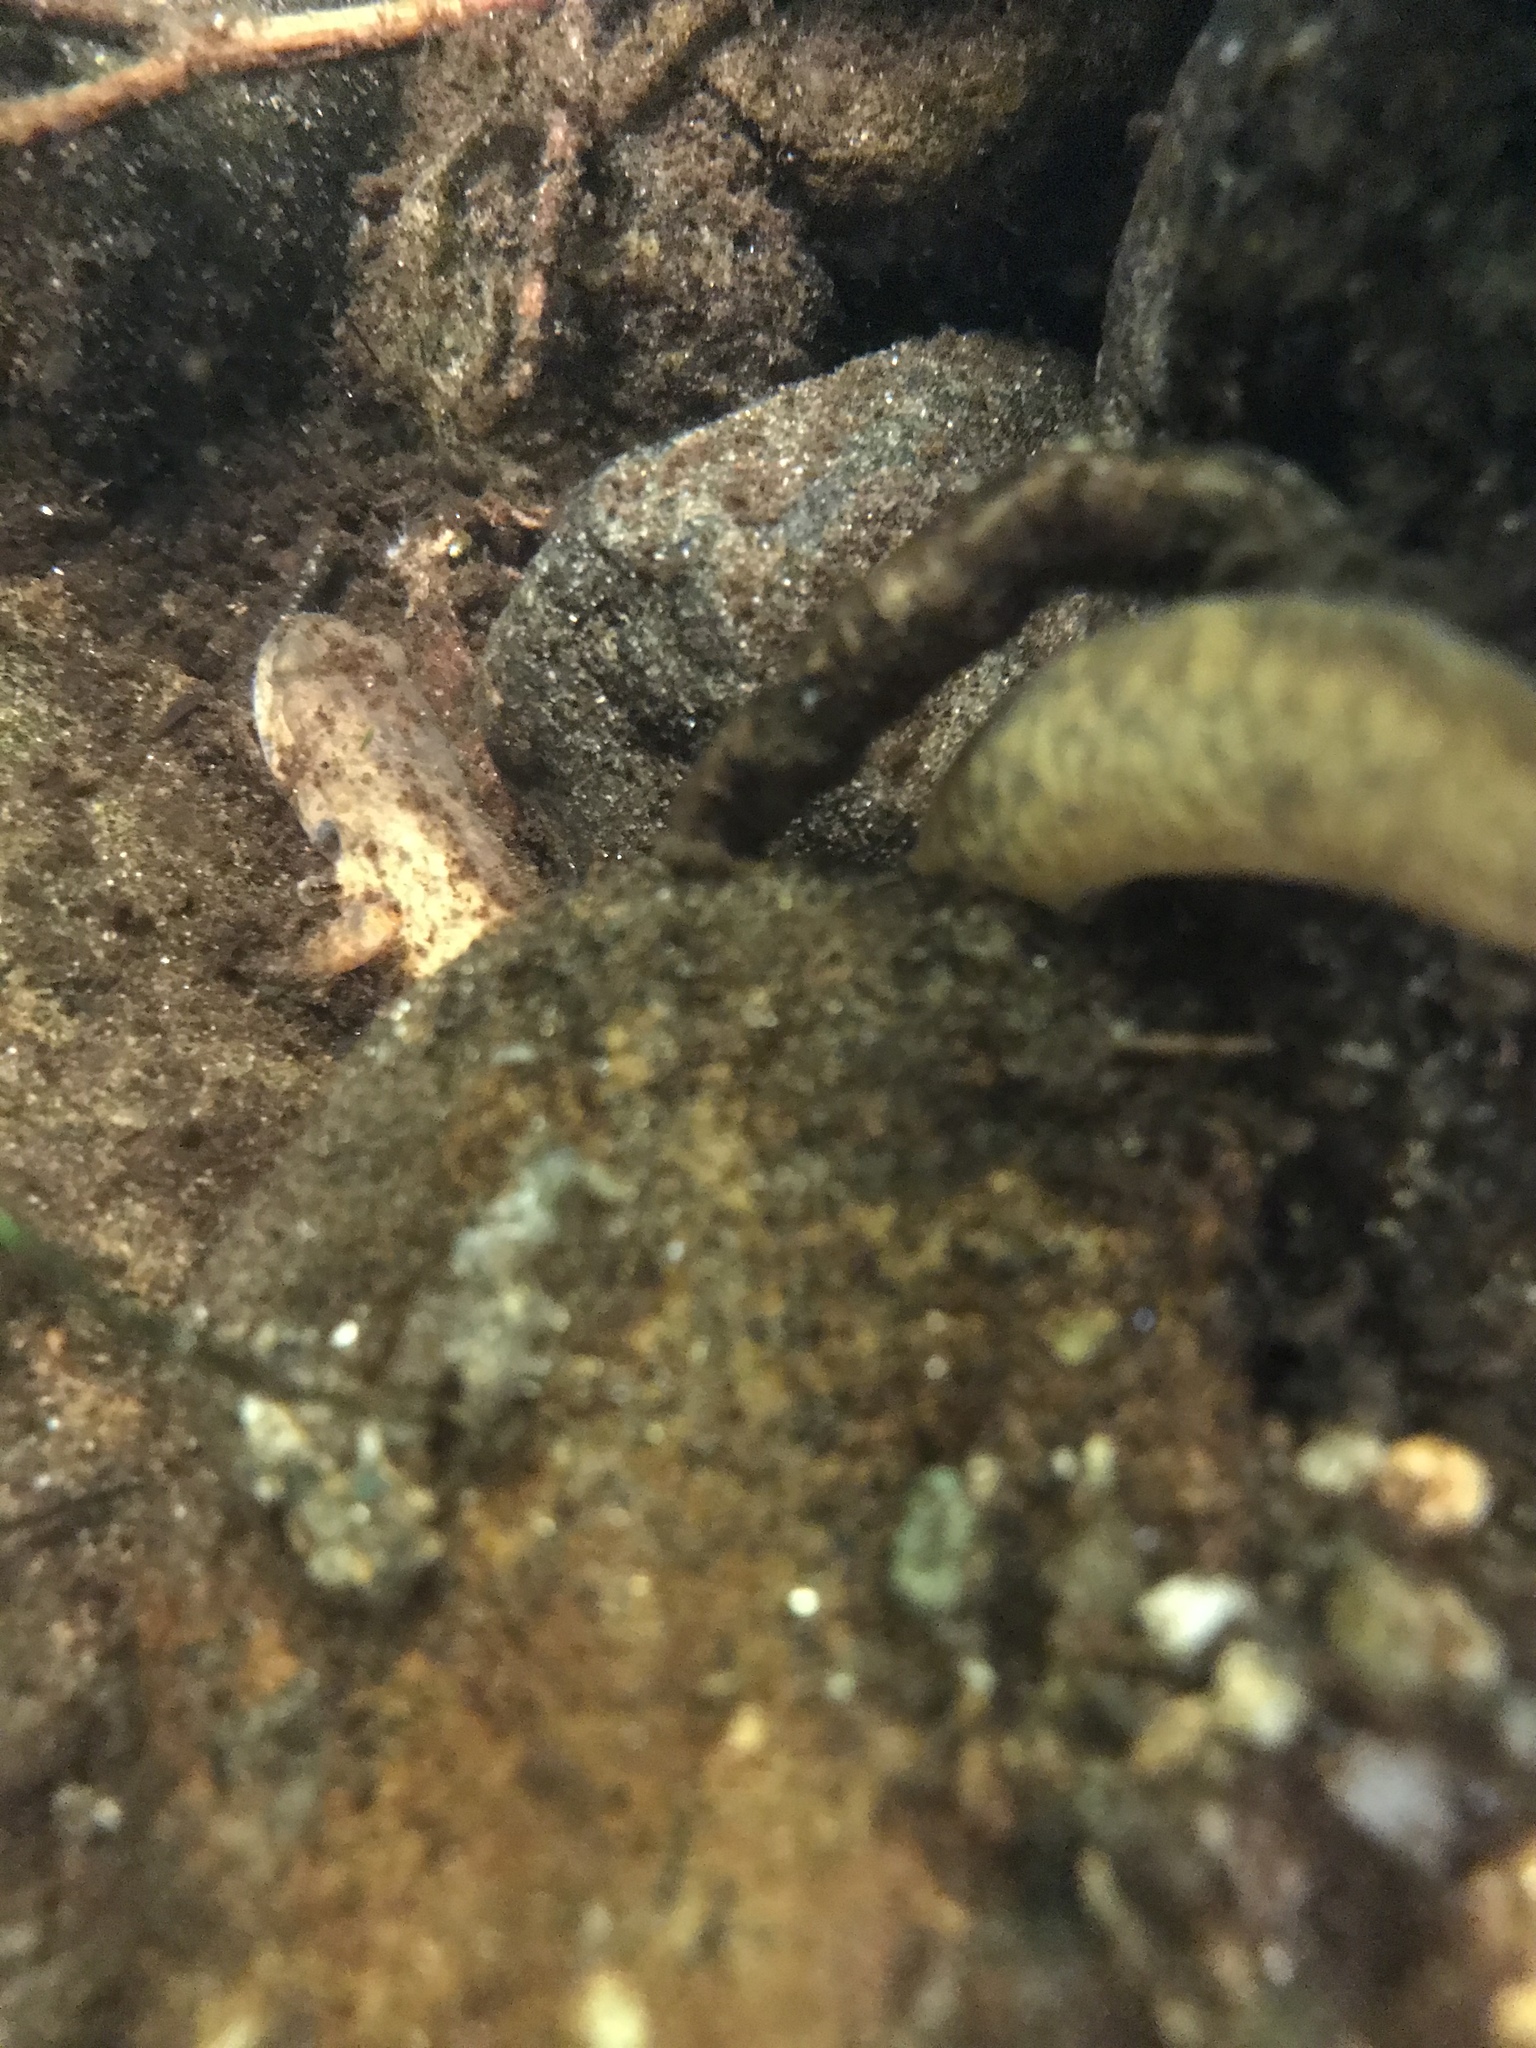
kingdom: Animalia
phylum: Chordata
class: Amphibia
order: Caudata
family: Plethodontidae
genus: Gyrinophilus
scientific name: Gyrinophilus porphyriticus
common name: Spring salamander
